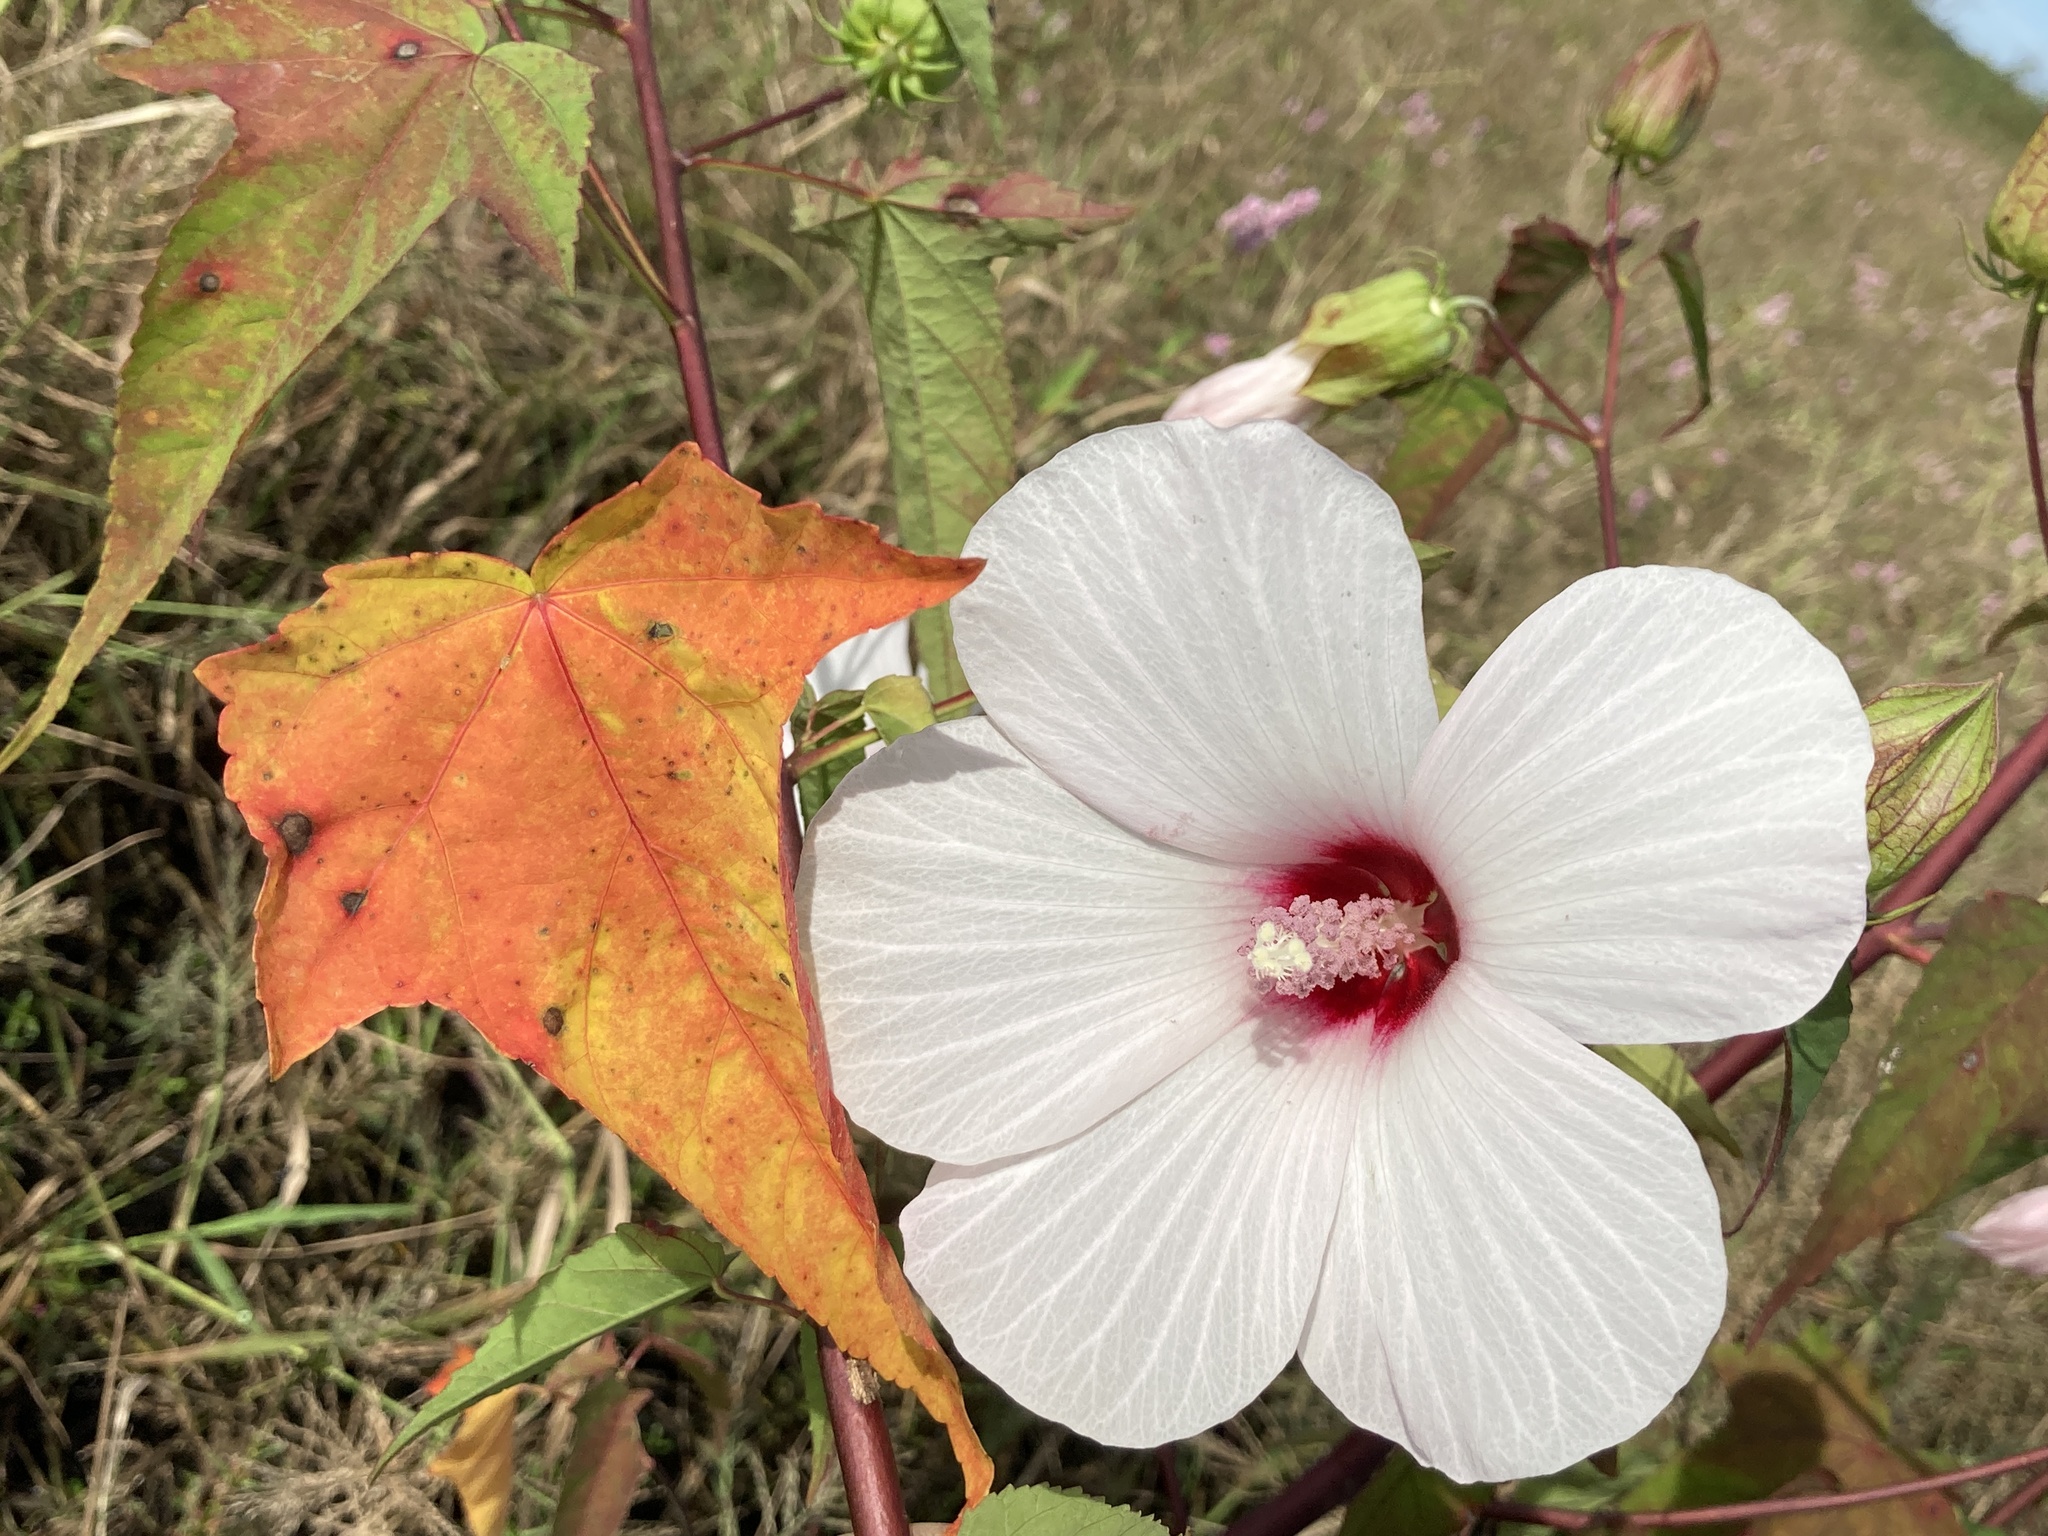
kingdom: Plantae
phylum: Tracheophyta
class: Magnoliopsida
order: Malvales
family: Malvaceae
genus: Hibiscus
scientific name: Hibiscus laevis
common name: Scarlet rose-mallow
